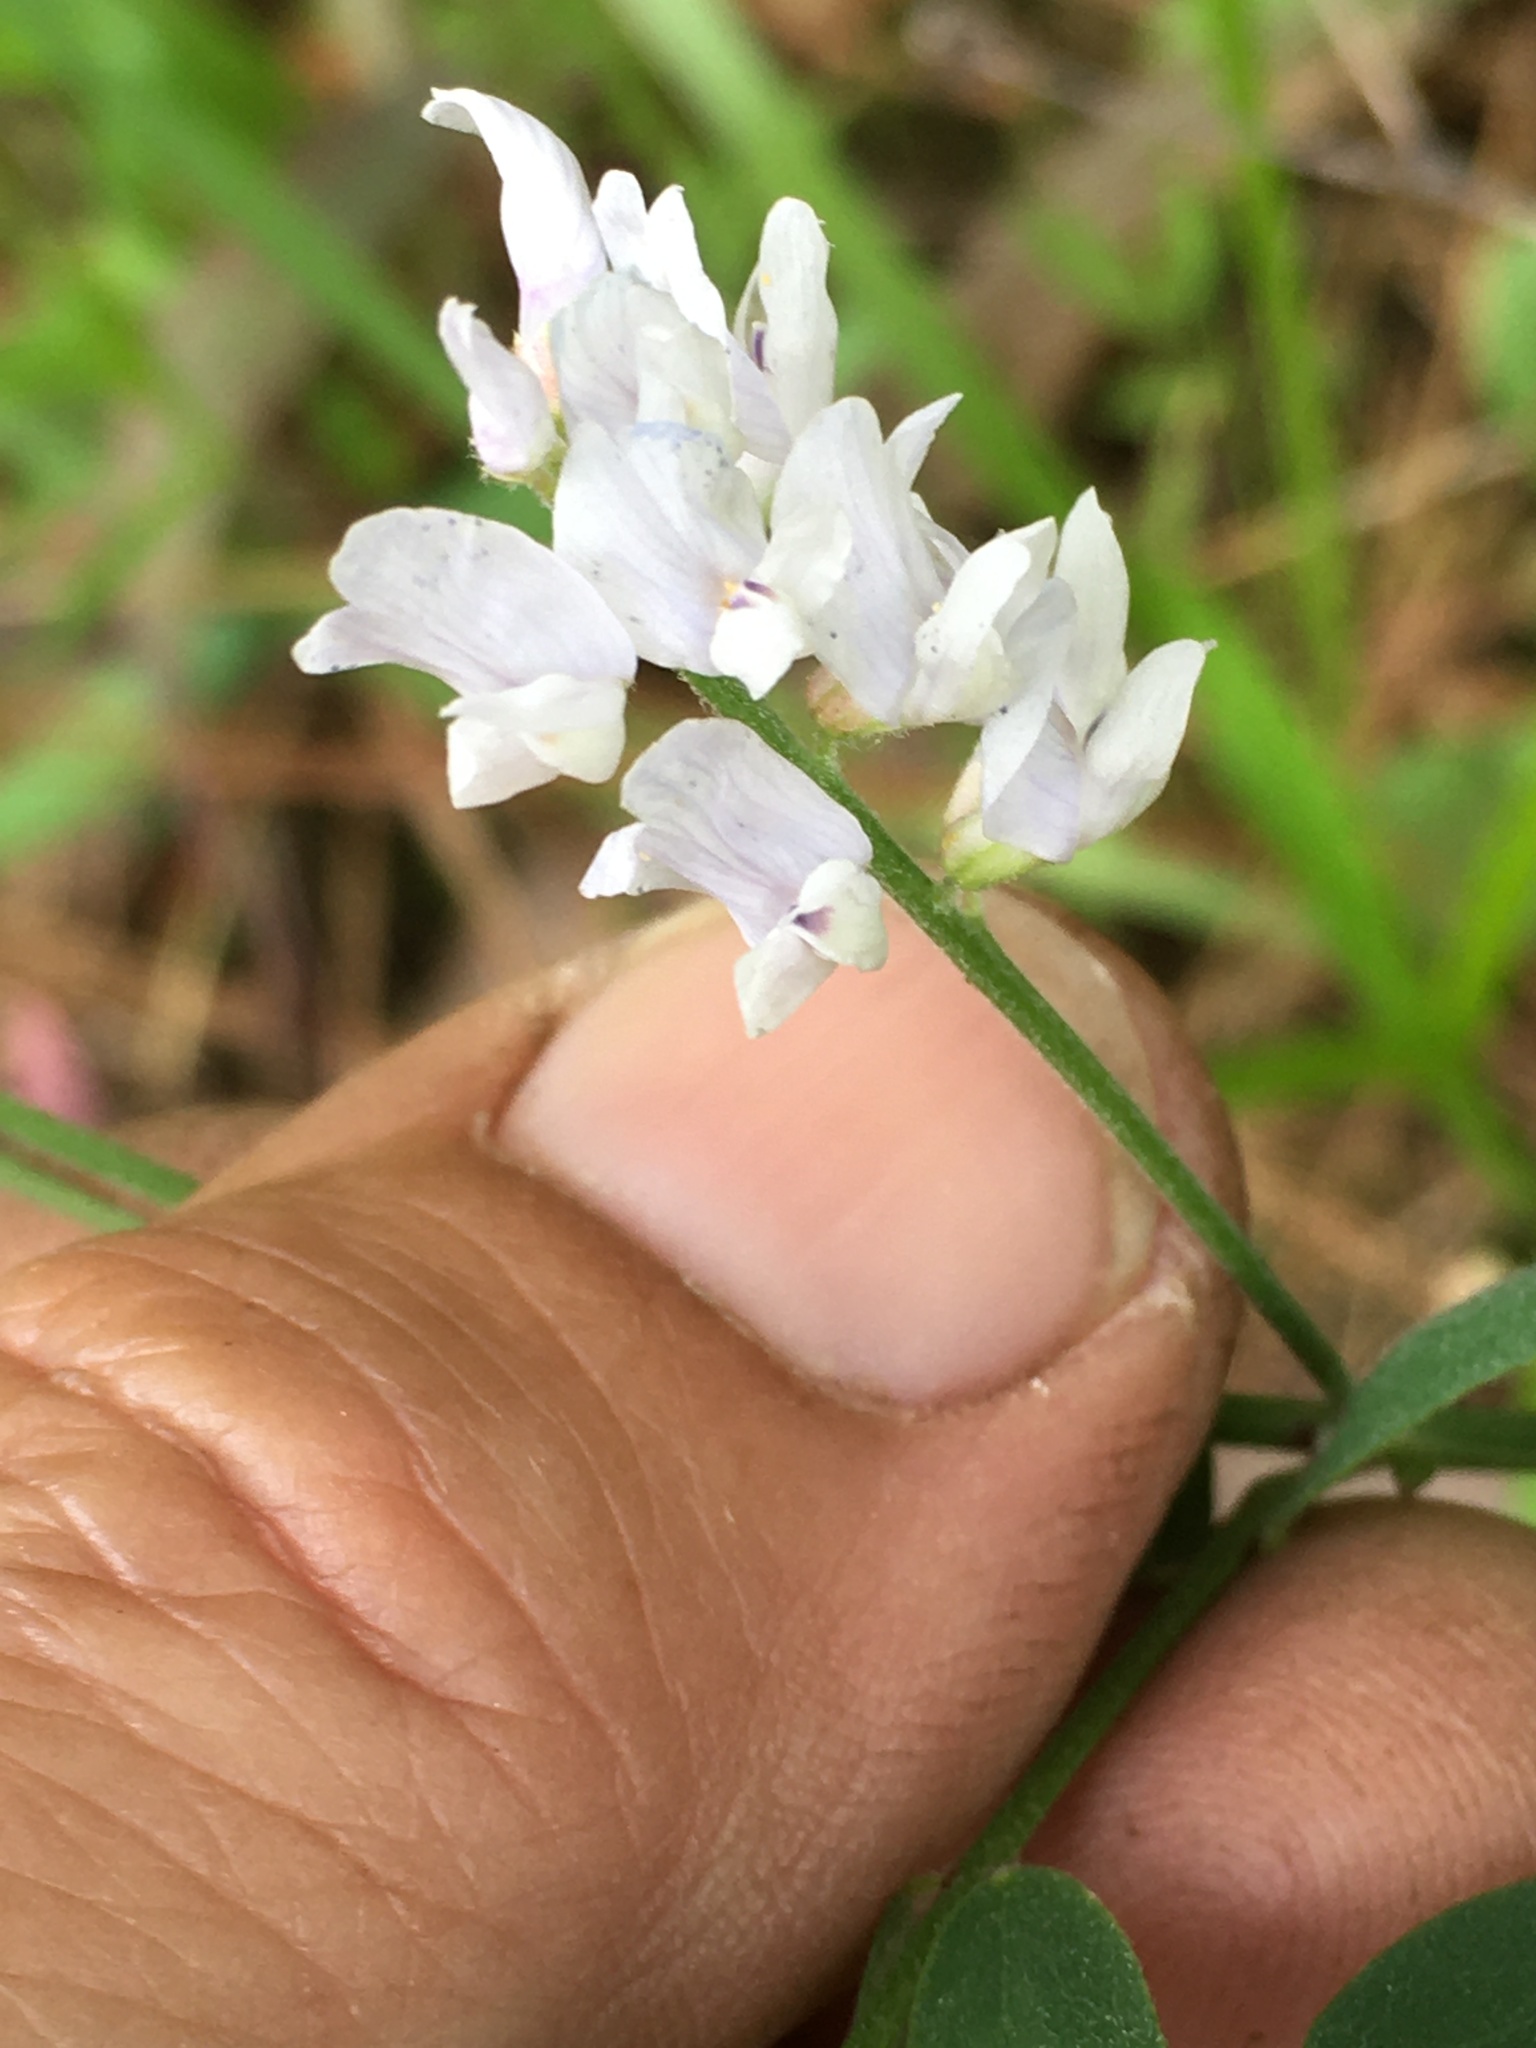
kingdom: Plantae
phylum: Tracheophyta
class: Magnoliopsida
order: Fabales
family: Fabaceae
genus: Vicia
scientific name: Vicia caroliniana
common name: Carolina vetch
